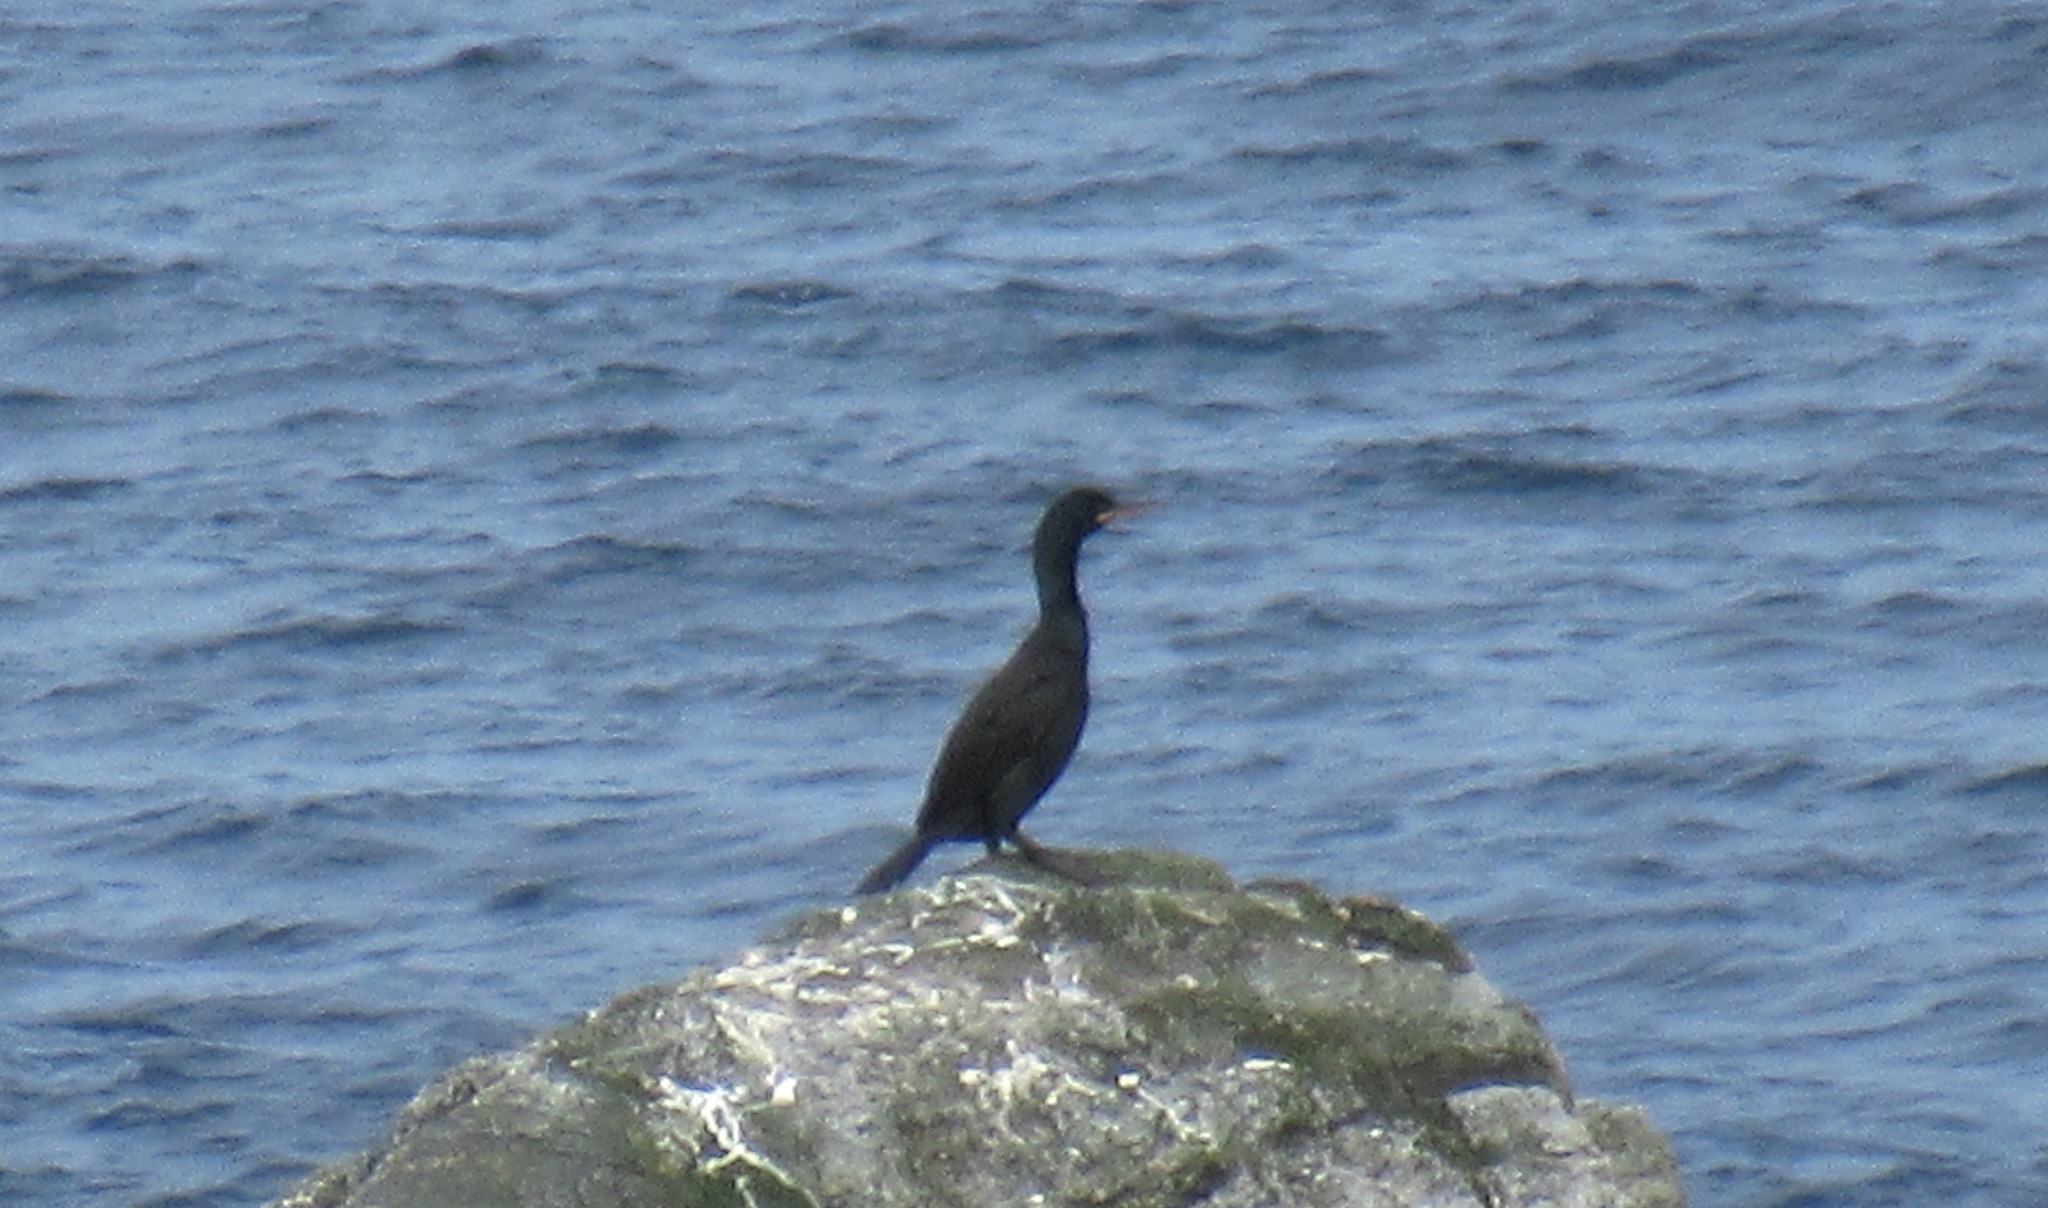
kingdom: Animalia
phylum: Chordata
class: Aves
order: Suliformes
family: Phalacrocoracidae
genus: Phalacrocorax
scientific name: Phalacrocorax aristotelis
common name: European shag
